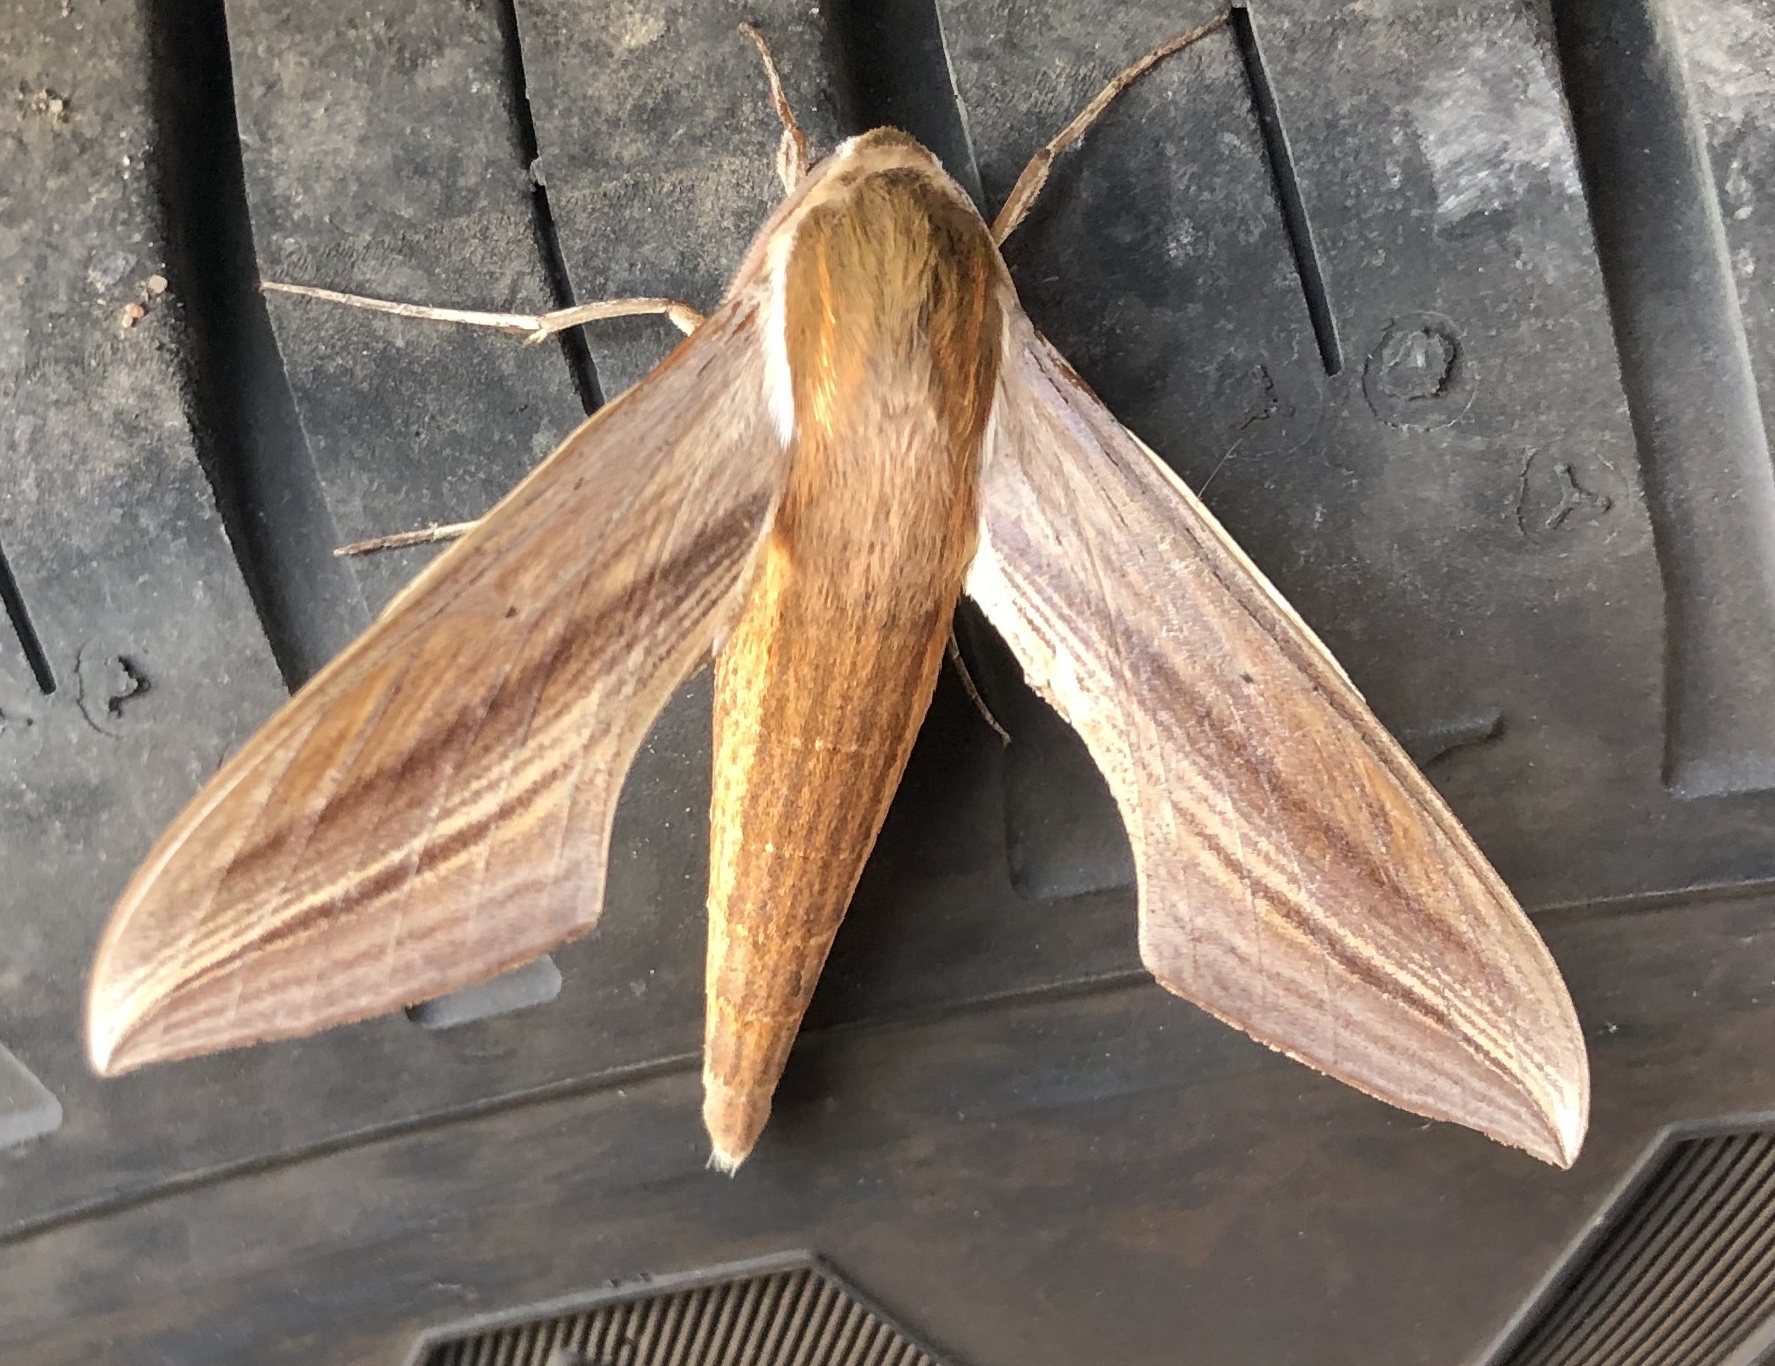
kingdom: Animalia
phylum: Arthropoda
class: Insecta
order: Lepidoptera
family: Sphingidae
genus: Xylophanes
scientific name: Xylophanes tersa
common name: Tersa sphinx
